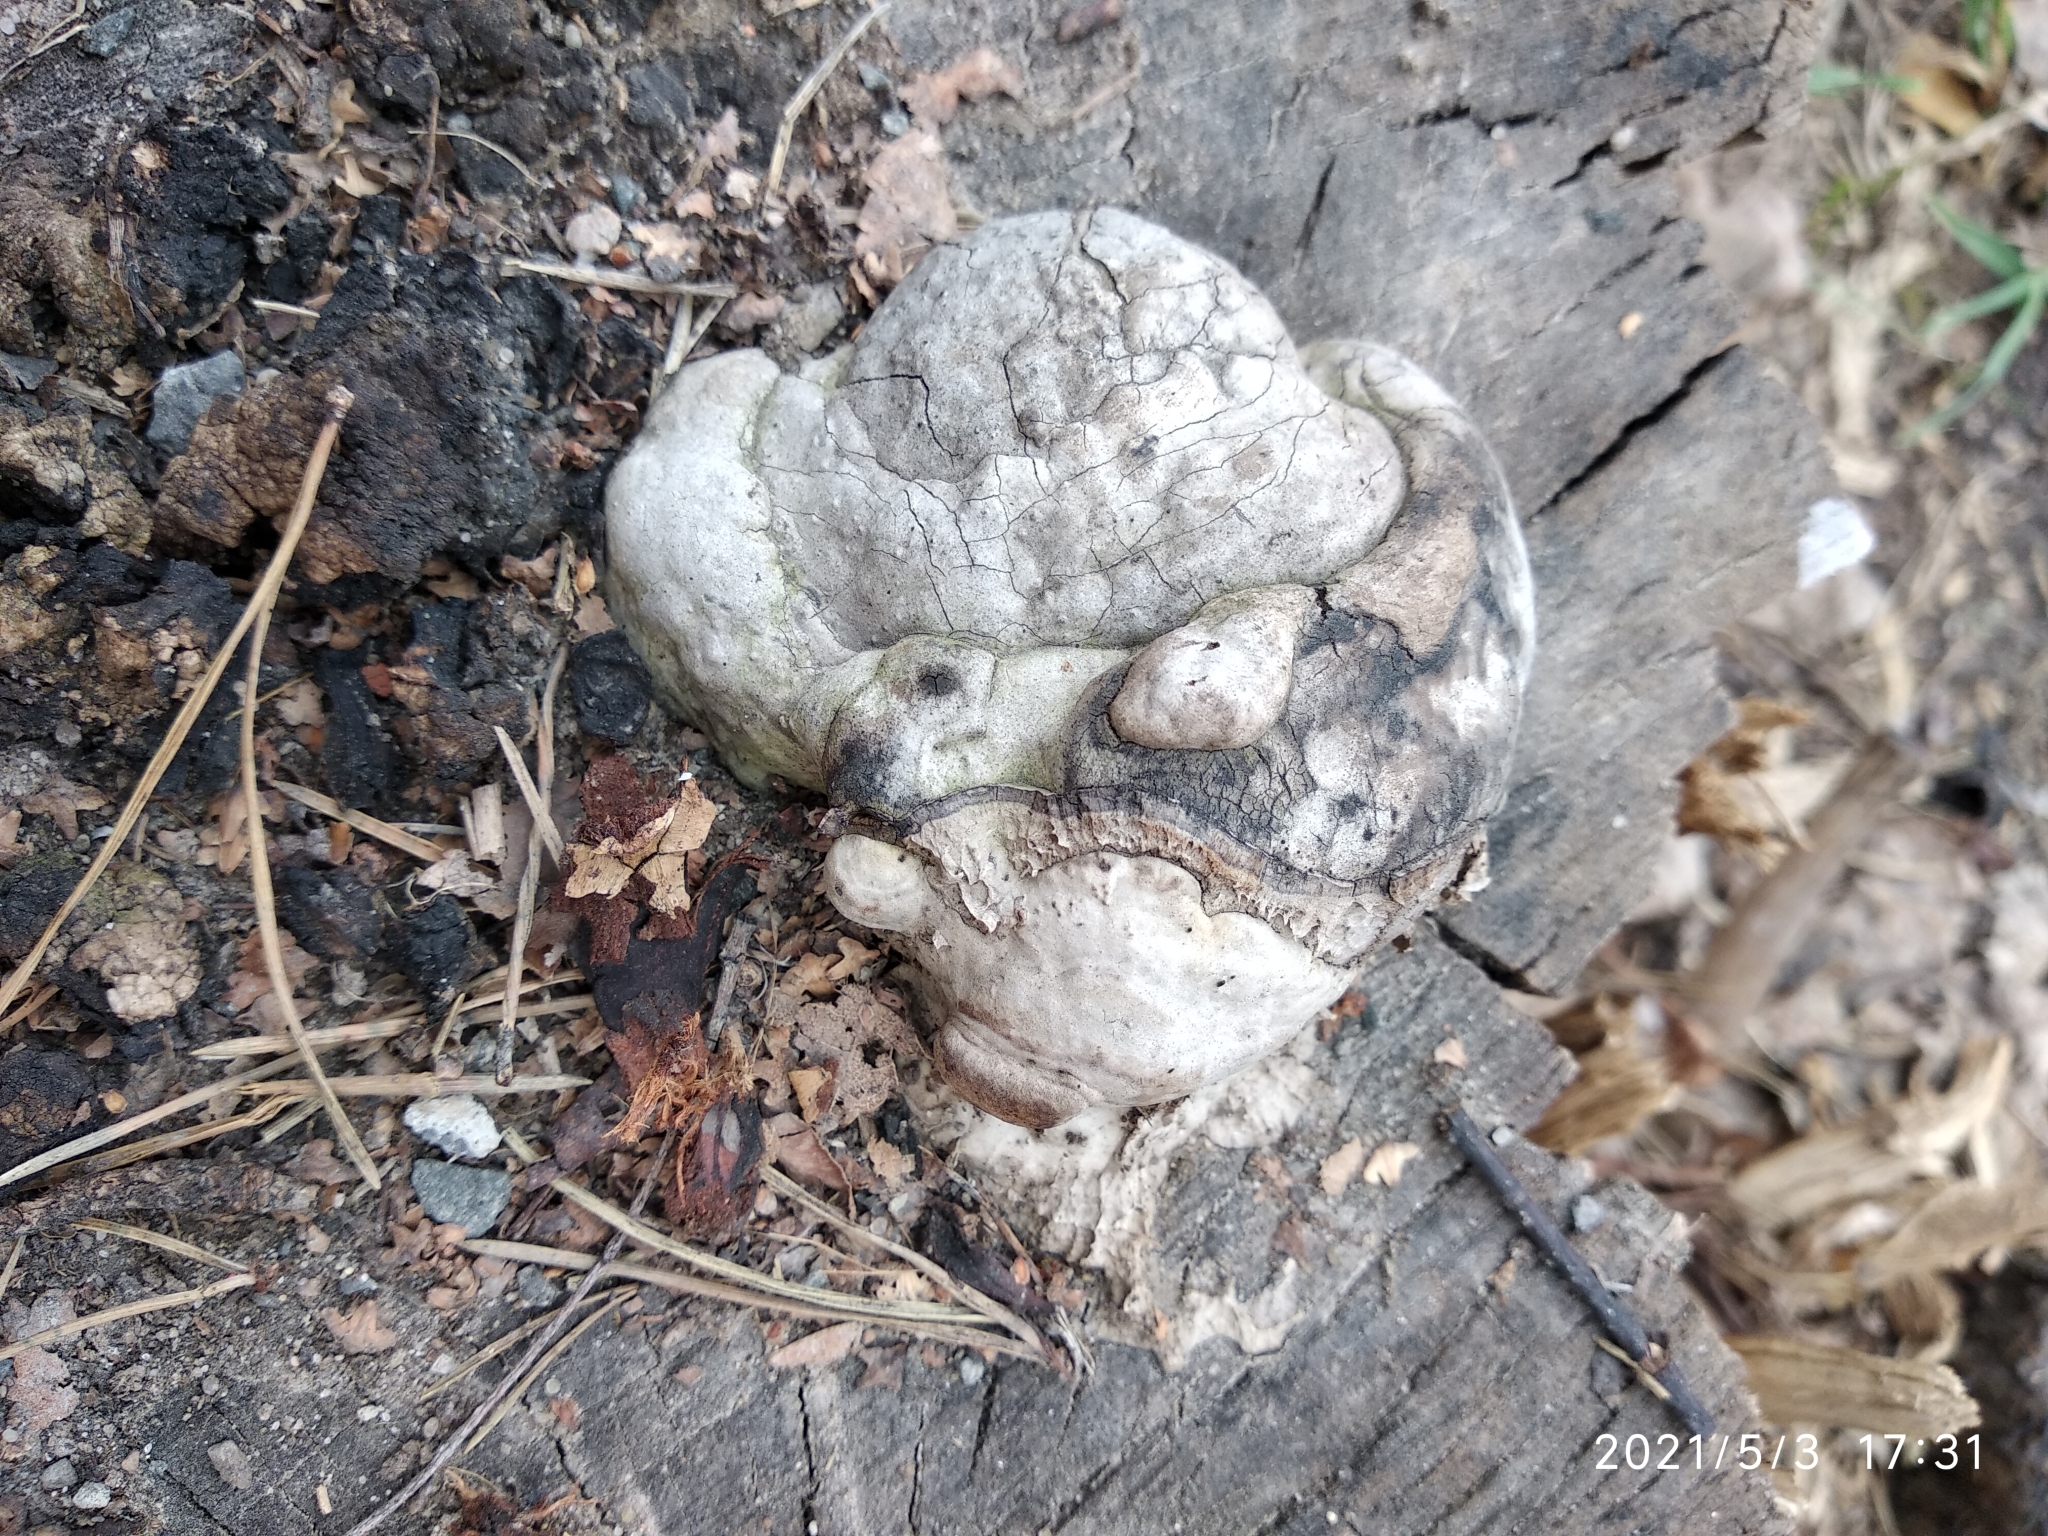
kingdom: Fungi
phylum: Basidiomycota
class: Agaricomycetes
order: Polyporales
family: Polyporaceae
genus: Fomes
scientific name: Fomes fomentarius
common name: Hoof fungus
